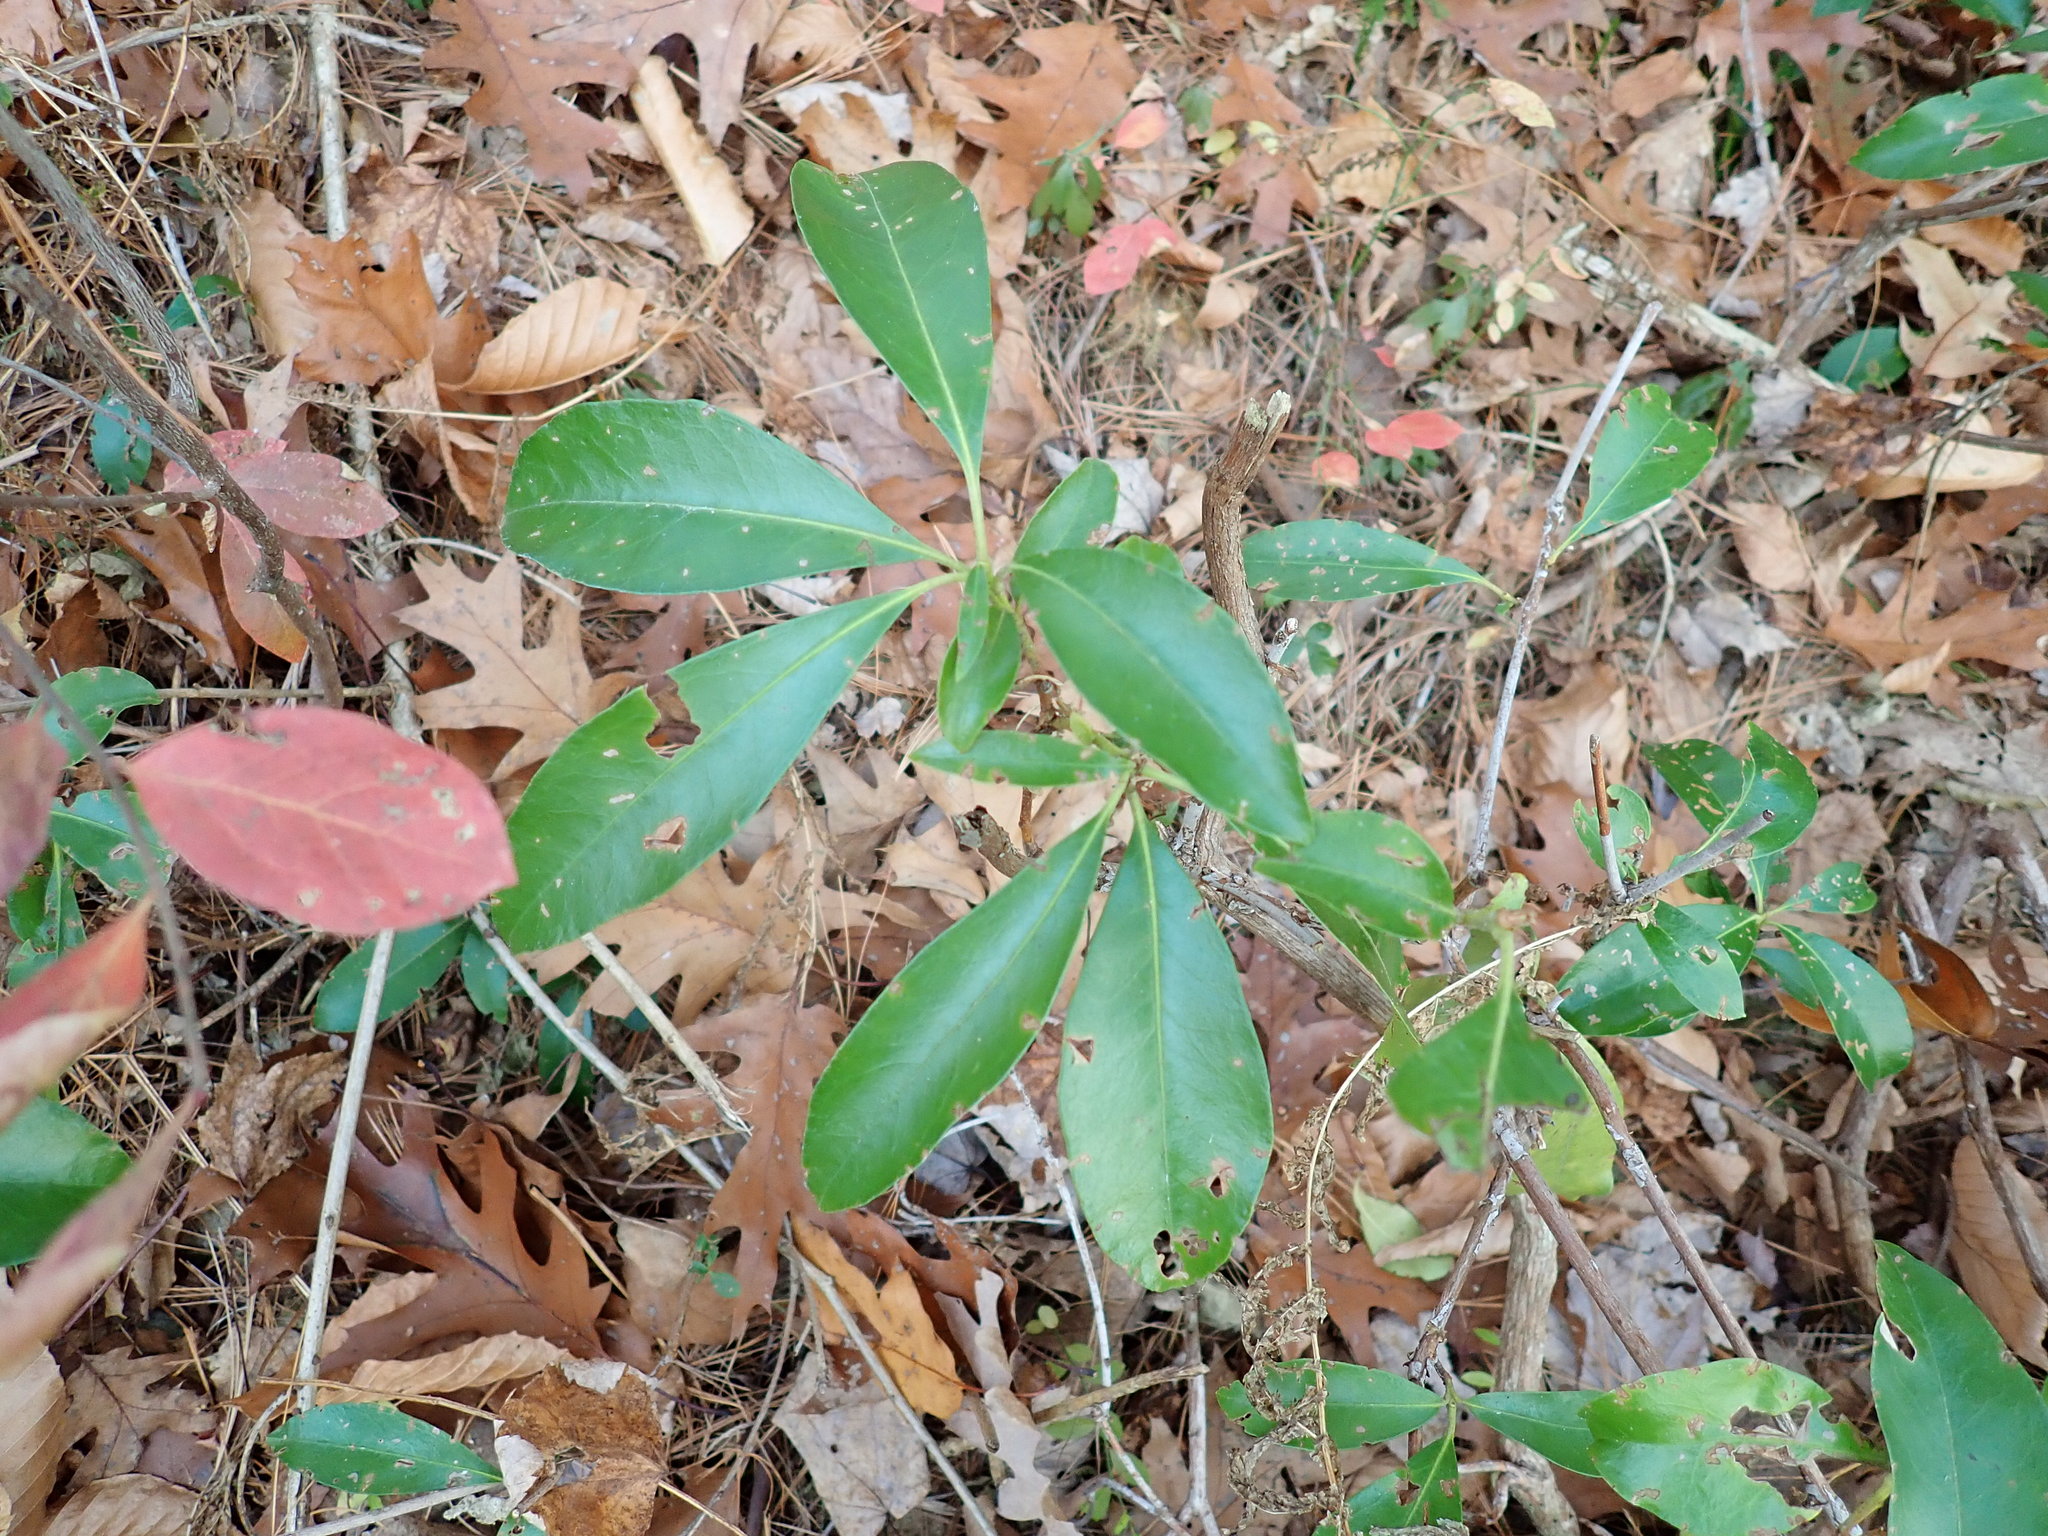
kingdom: Plantae
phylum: Tracheophyta
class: Magnoliopsida
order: Ericales
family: Ericaceae
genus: Kalmia
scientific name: Kalmia latifolia
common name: Mountain-laurel
